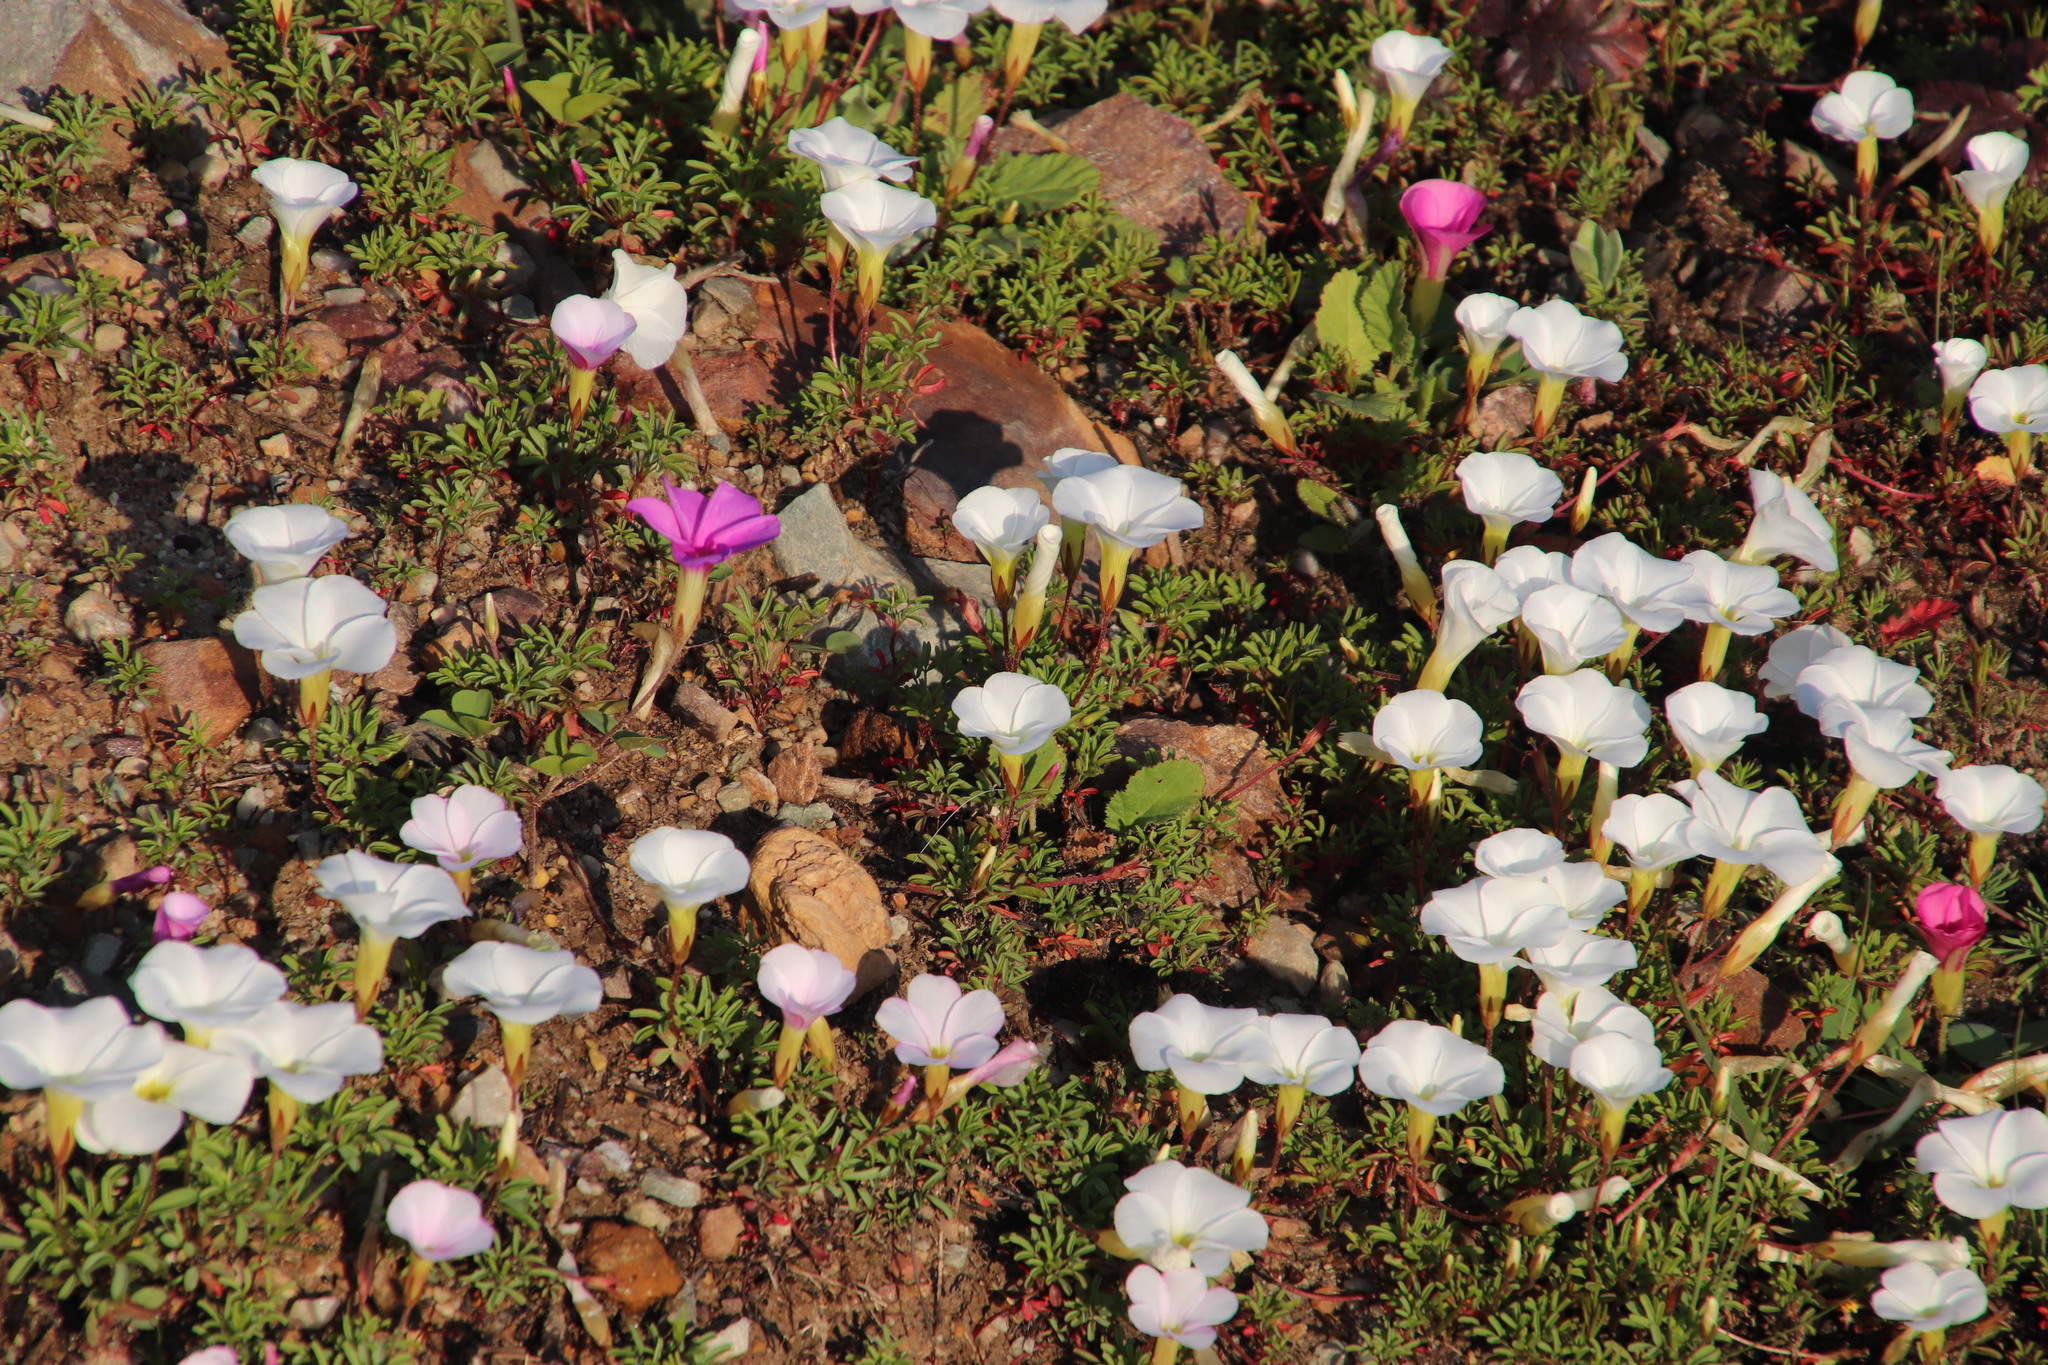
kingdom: Plantae
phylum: Tracheophyta
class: Magnoliopsida
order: Oxalidales
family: Oxalidaceae
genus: Oxalis
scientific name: Oxalis purpurea
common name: Purple woodsorrel
